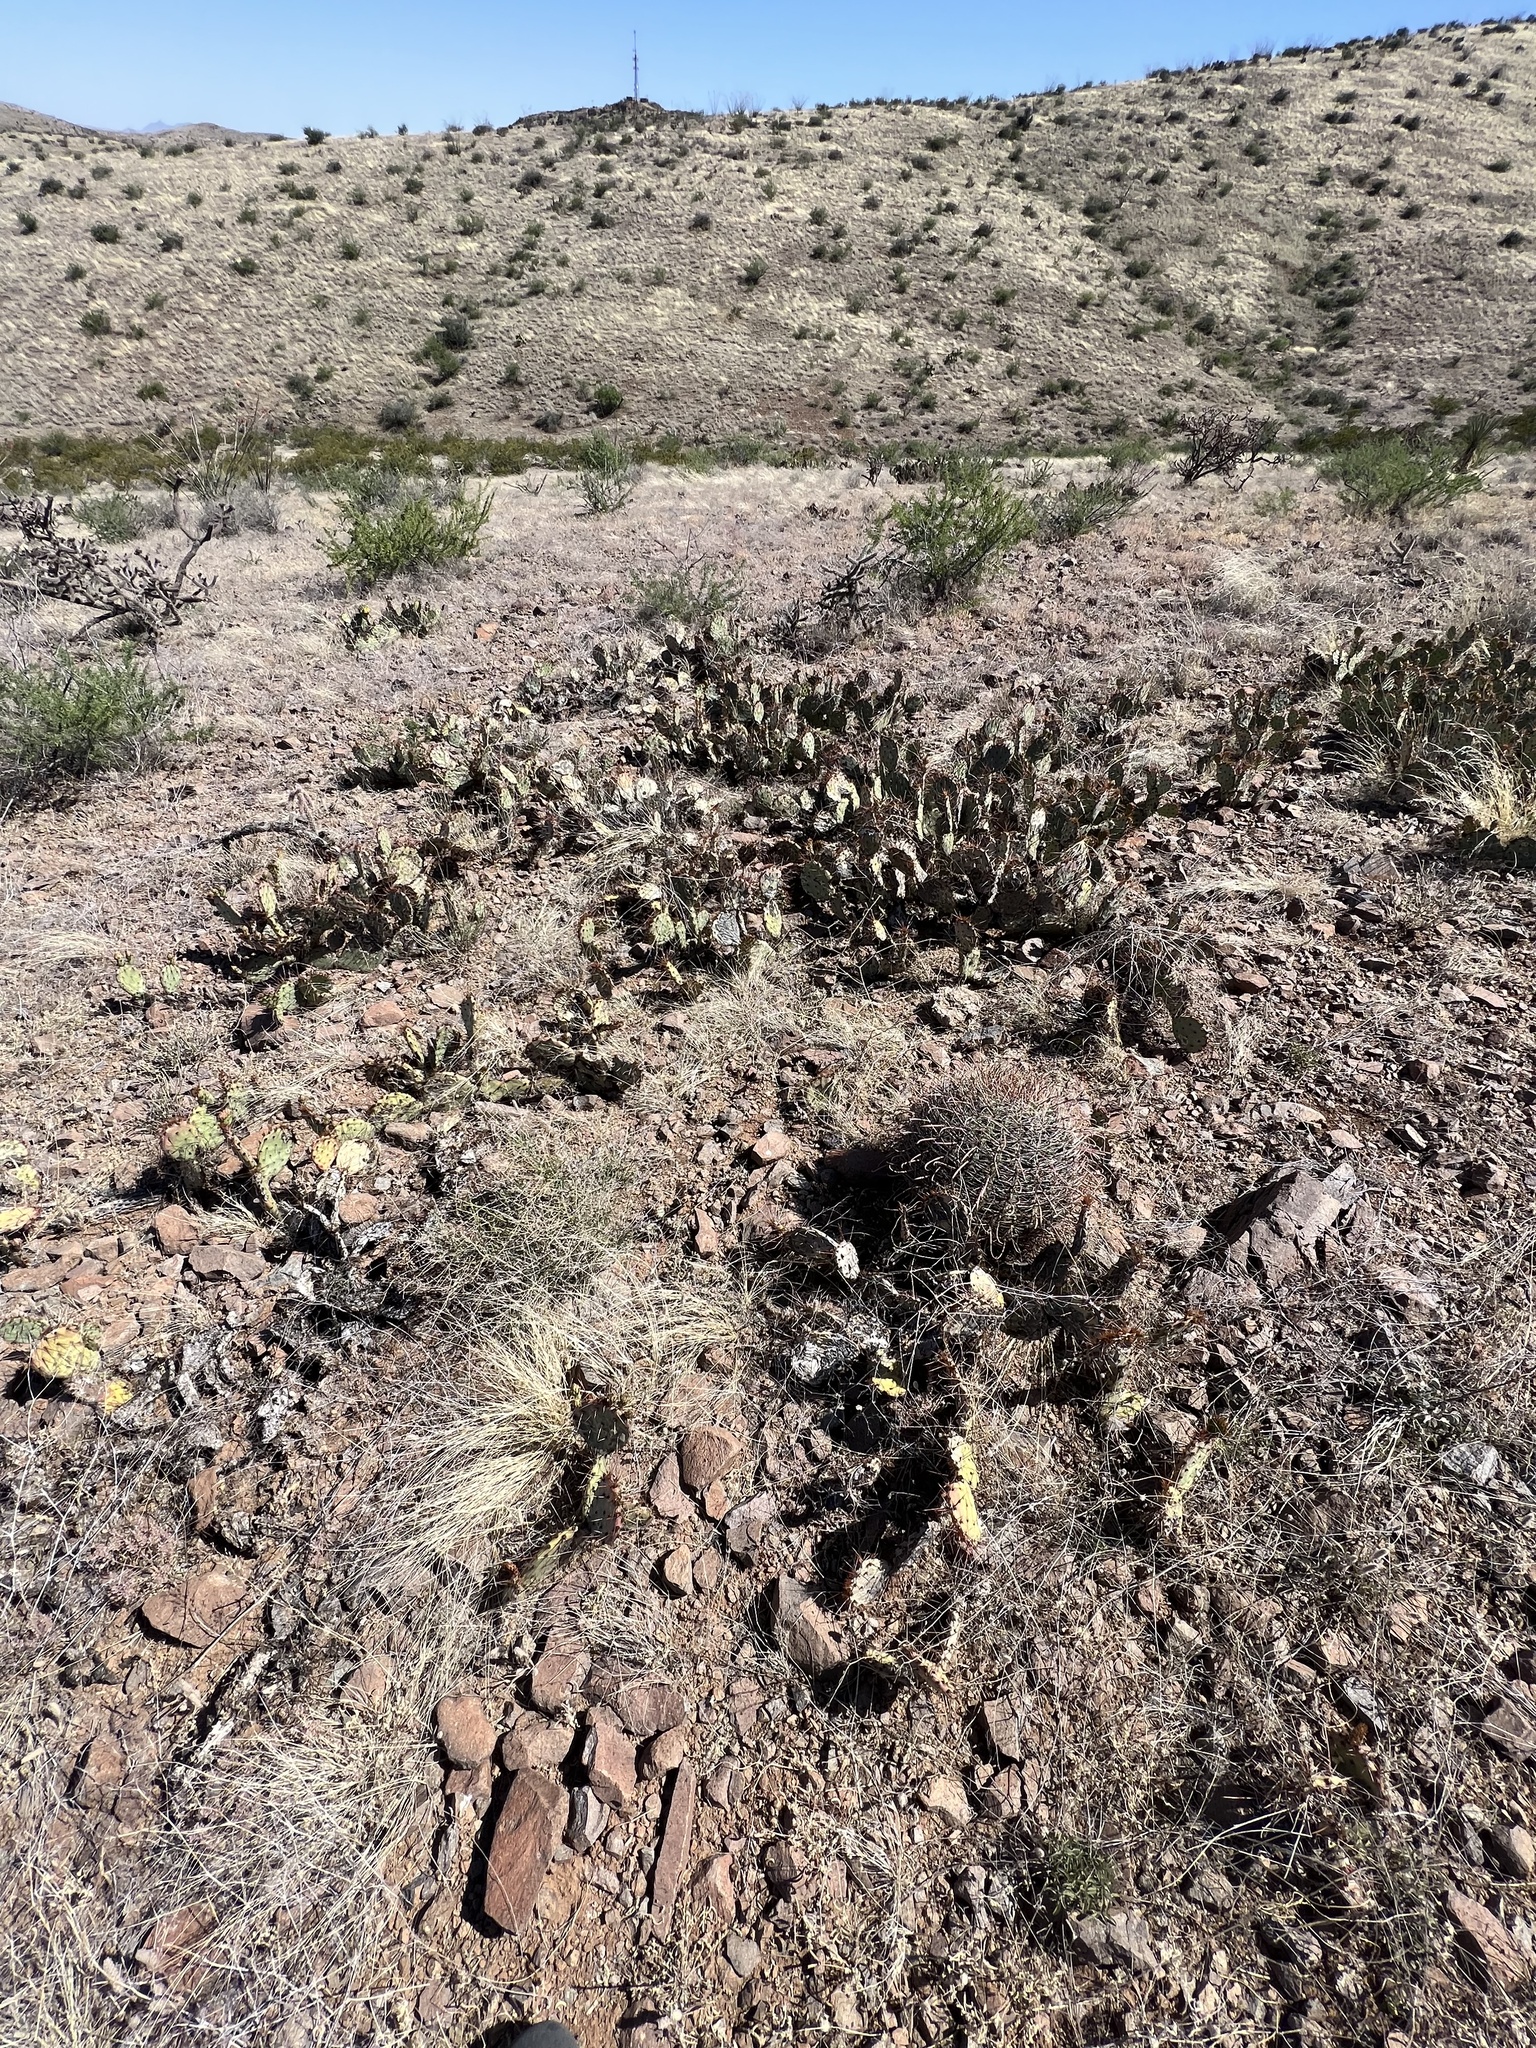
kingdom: Plantae
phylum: Tracheophyta
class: Magnoliopsida
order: Caryophyllales
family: Cactaceae
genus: Opuntia
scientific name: Opuntia phaeacantha
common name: New mexico prickly-pear
